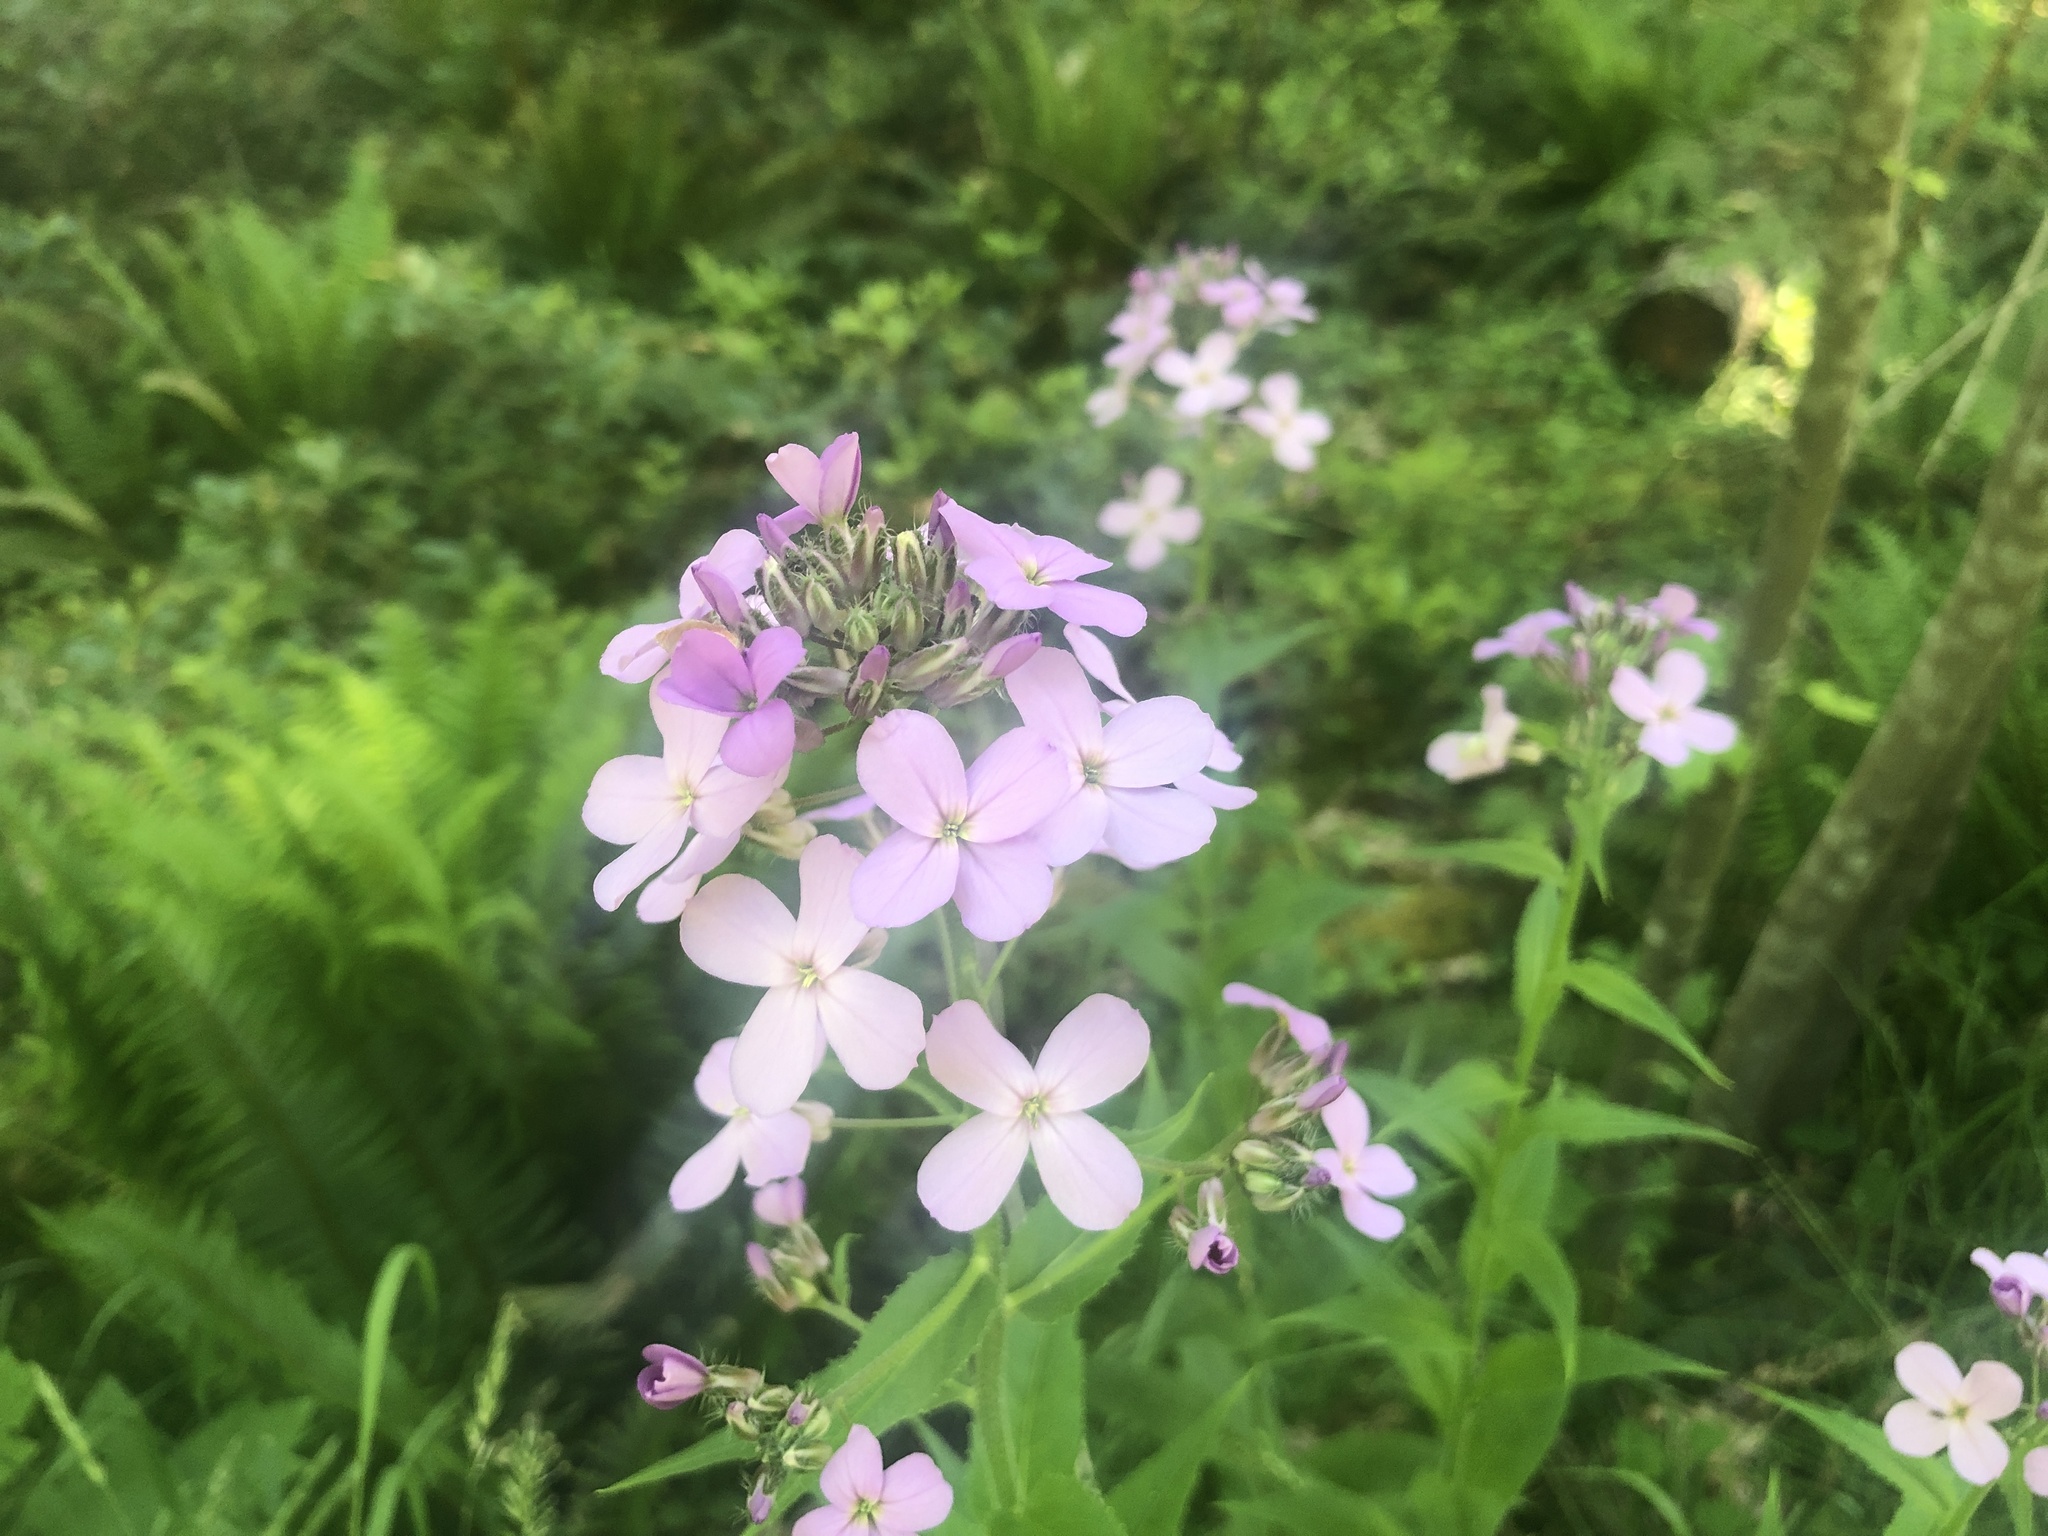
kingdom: Plantae
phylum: Tracheophyta
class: Magnoliopsida
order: Brassicales
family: Brassicaceae
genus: Hesperis
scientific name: Hesperis matronalis
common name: Dame's-violet
